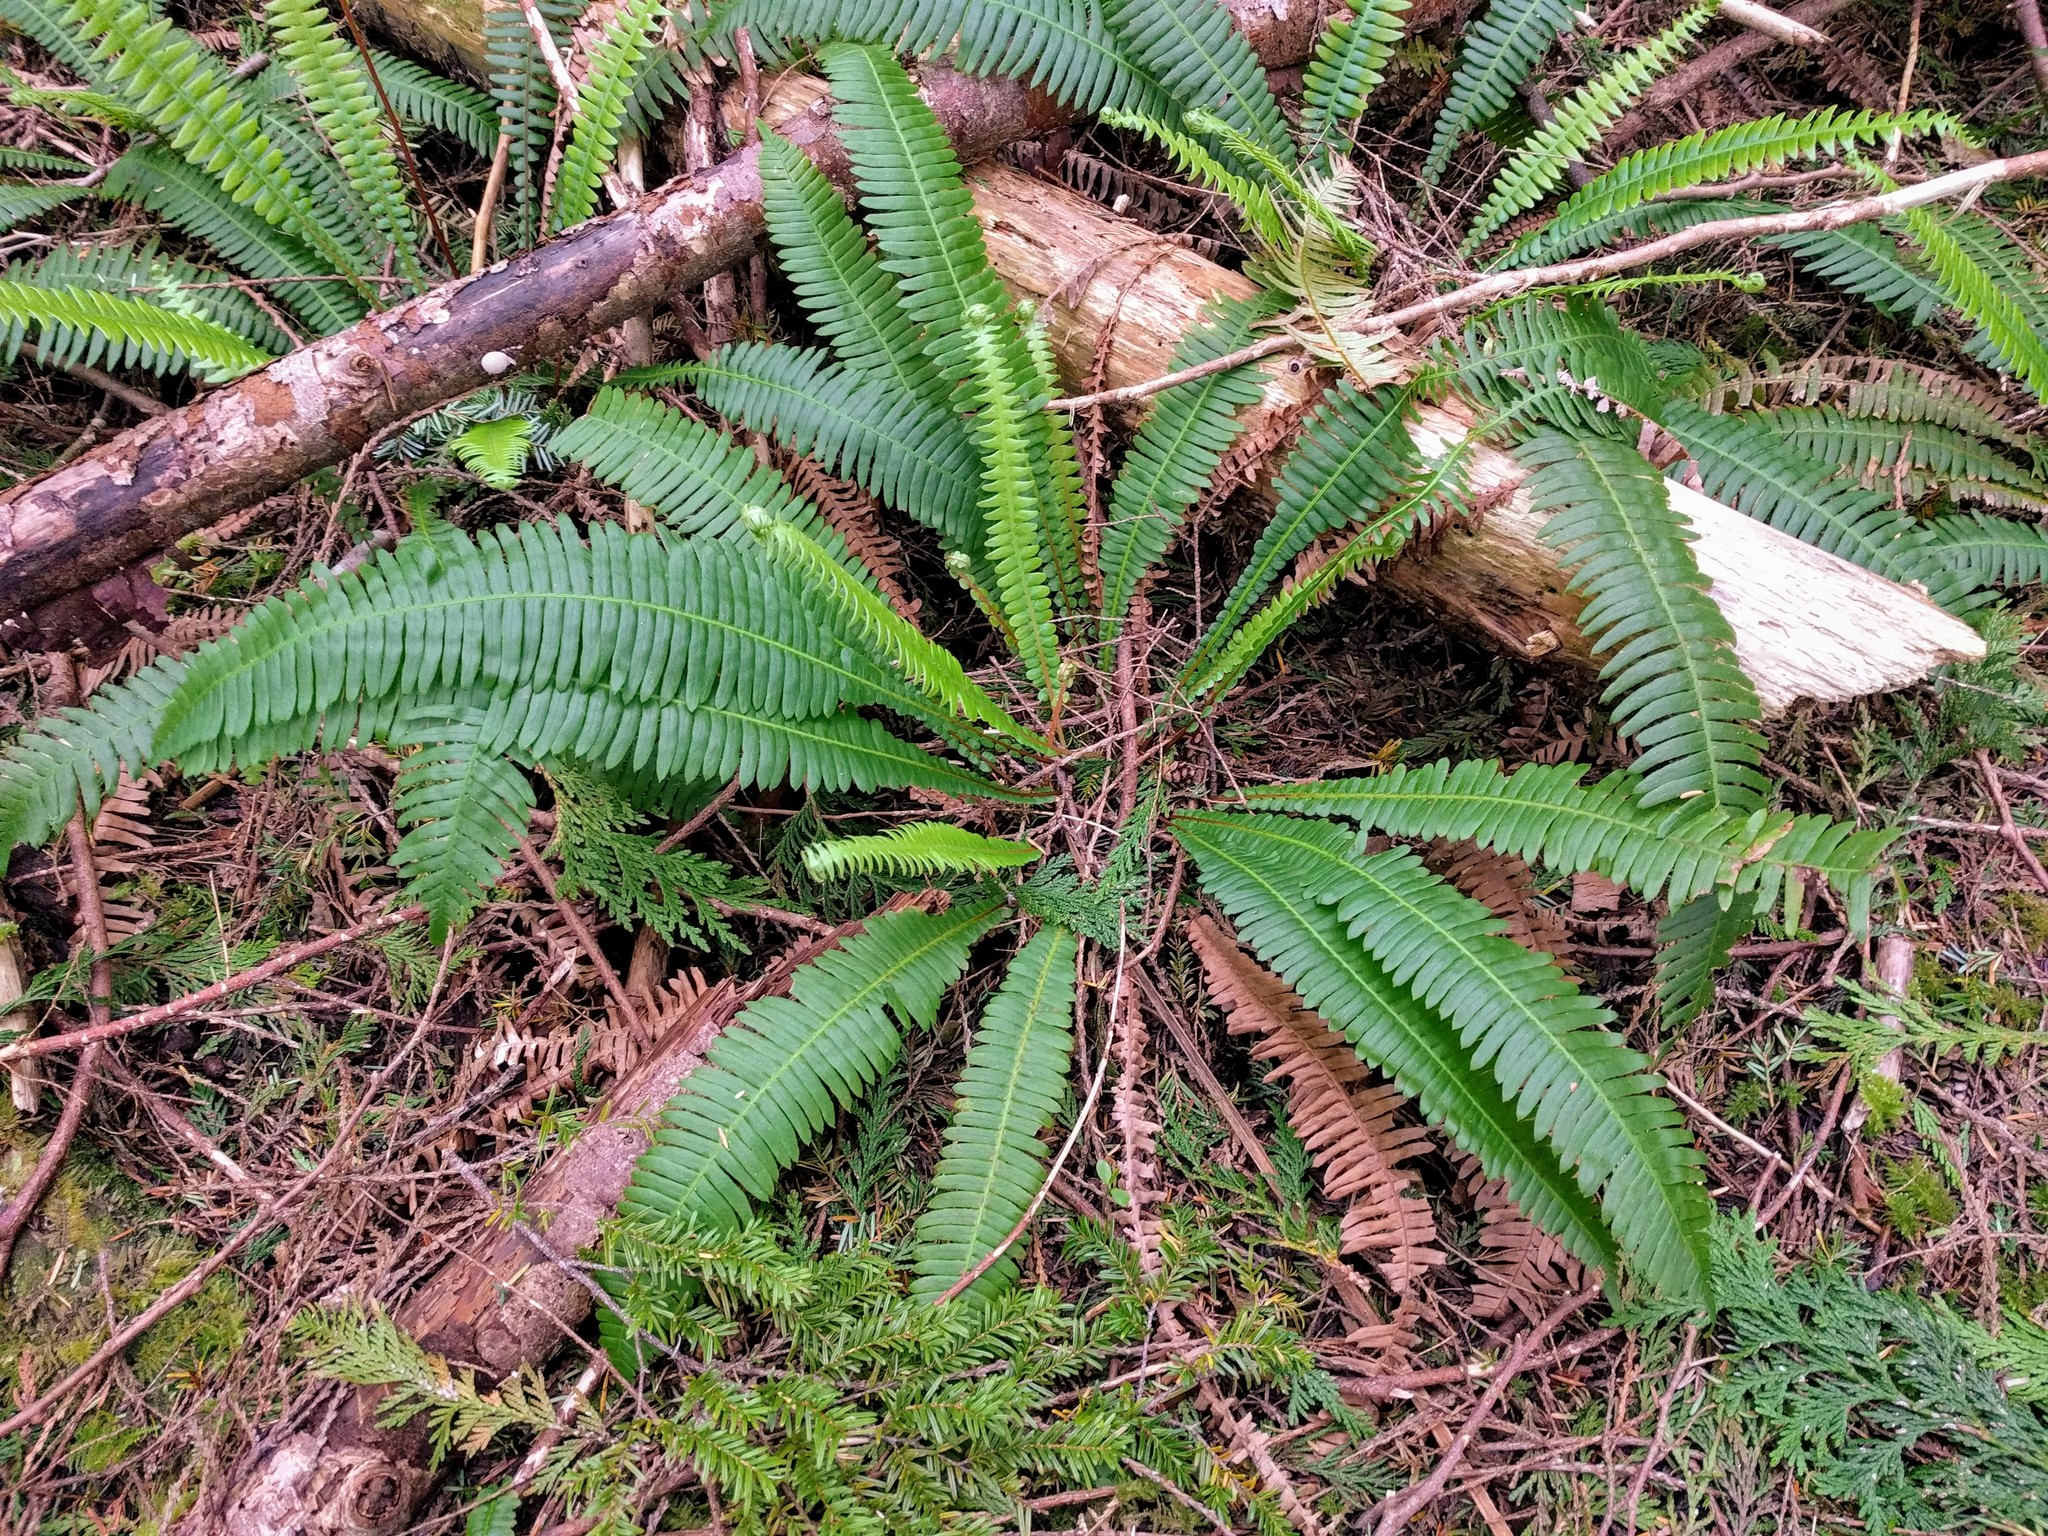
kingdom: Plantae
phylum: Tracheophyta
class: Polypodiopsida
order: Polypodiales
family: Blechnaceae
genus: Struthiopteris
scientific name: Struthiopteris spicant
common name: Deer fern
